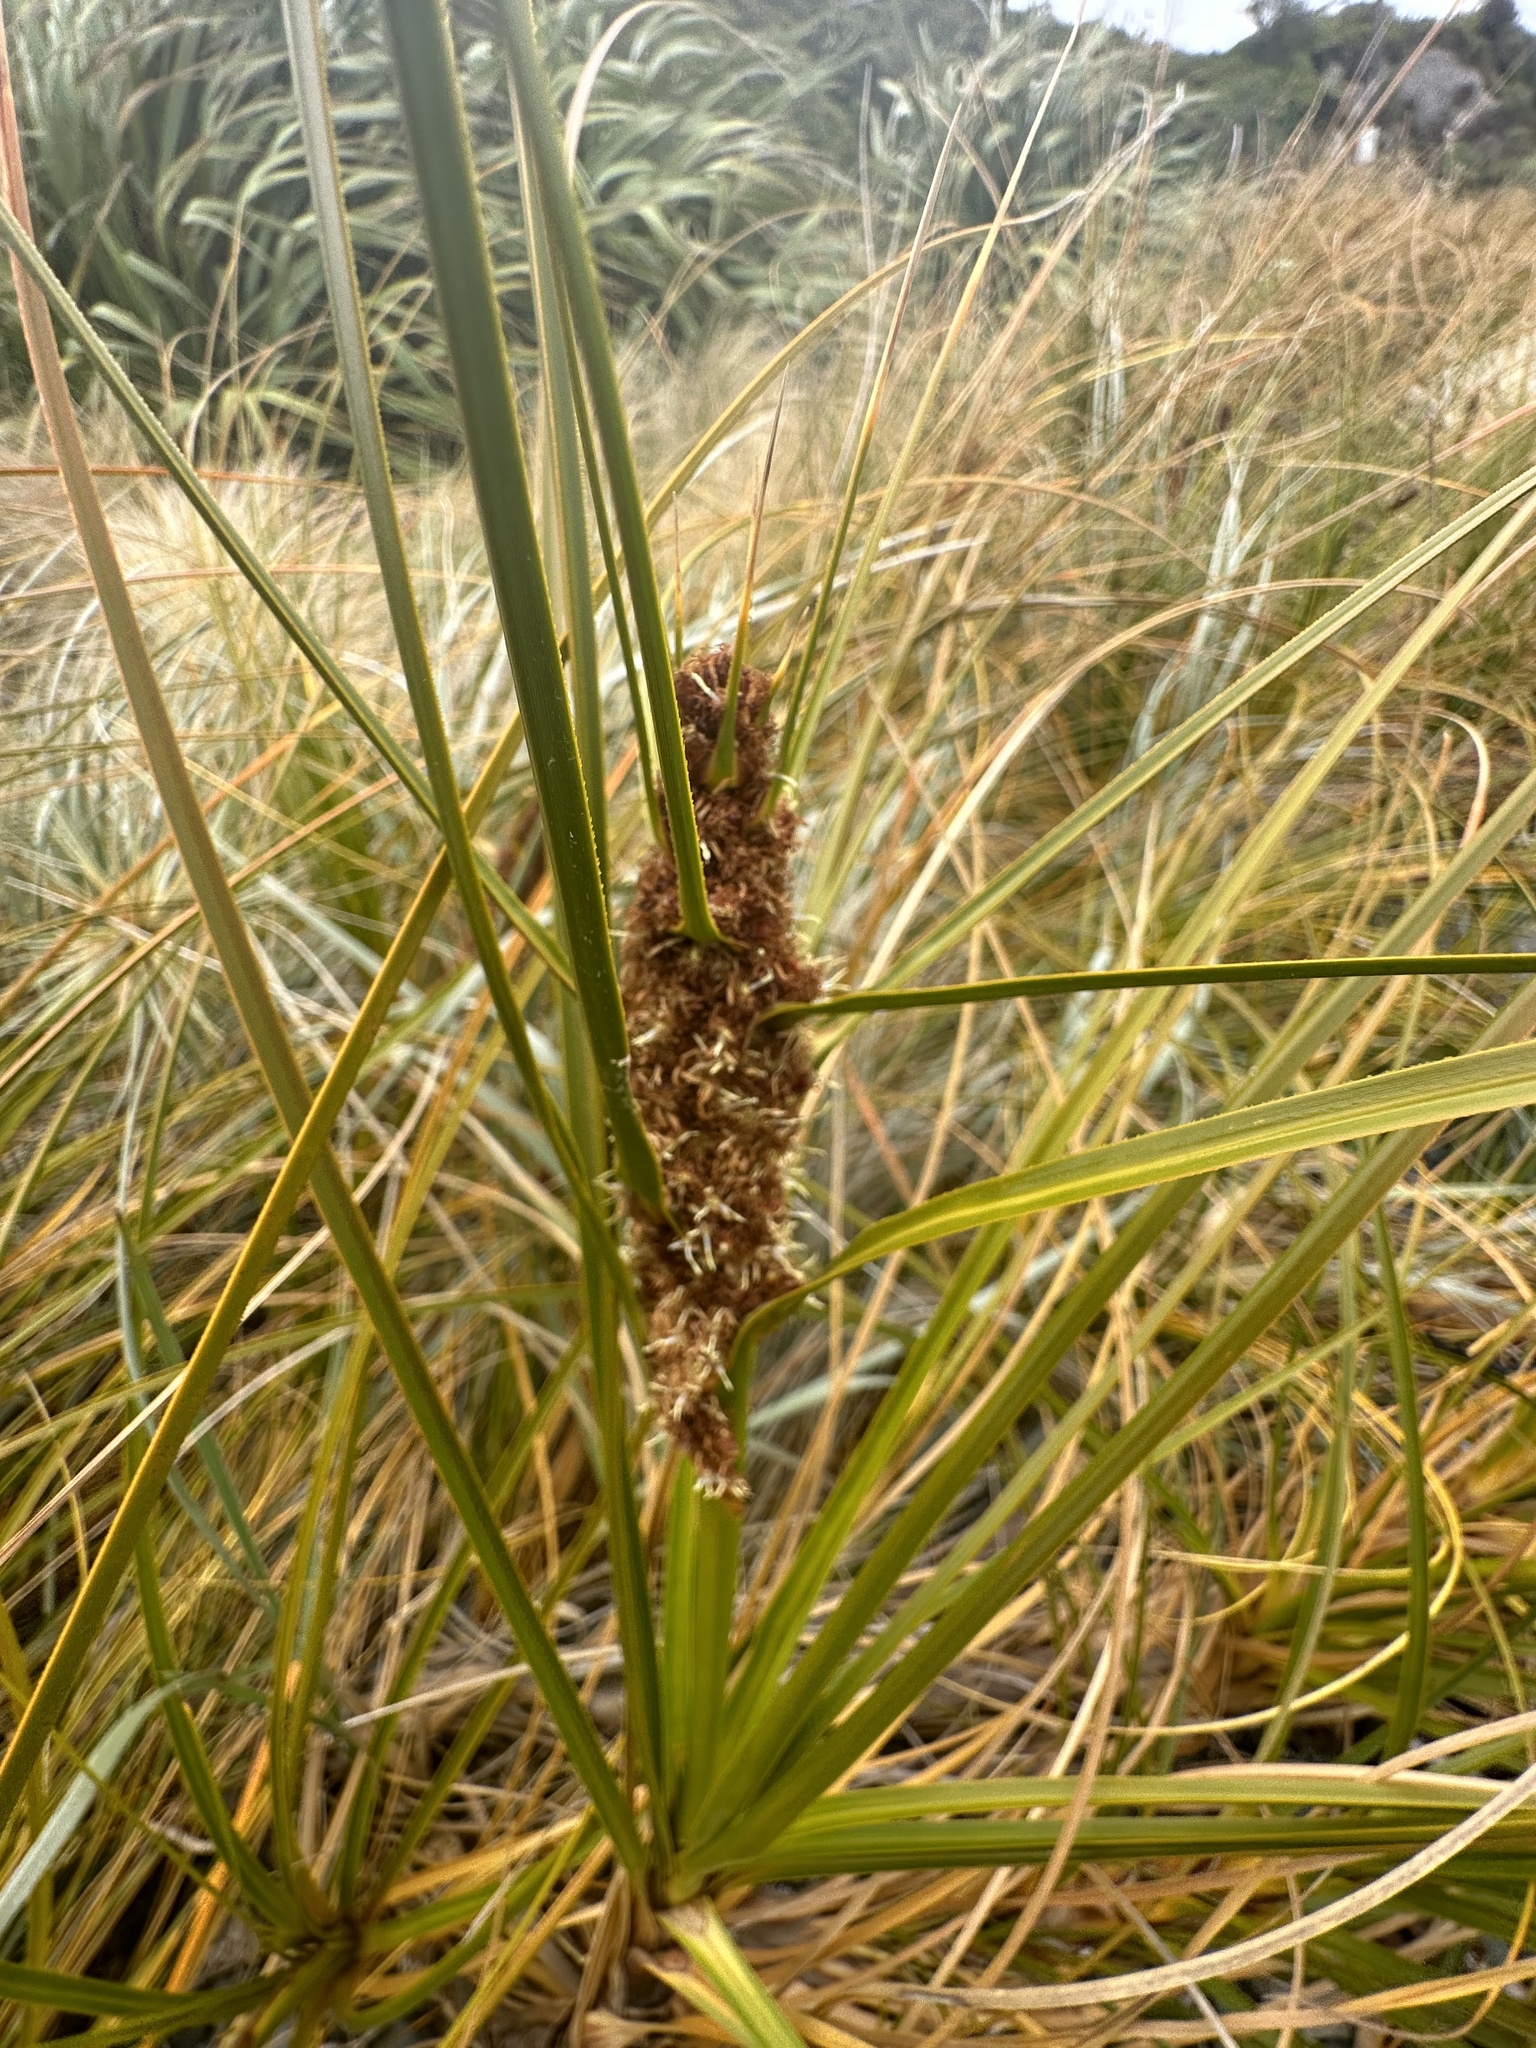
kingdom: Plantae
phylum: Tracheophyta
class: Liliopsida
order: Poales
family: Cyperaceae
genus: Ficinia
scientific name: Ficinia spiralis
